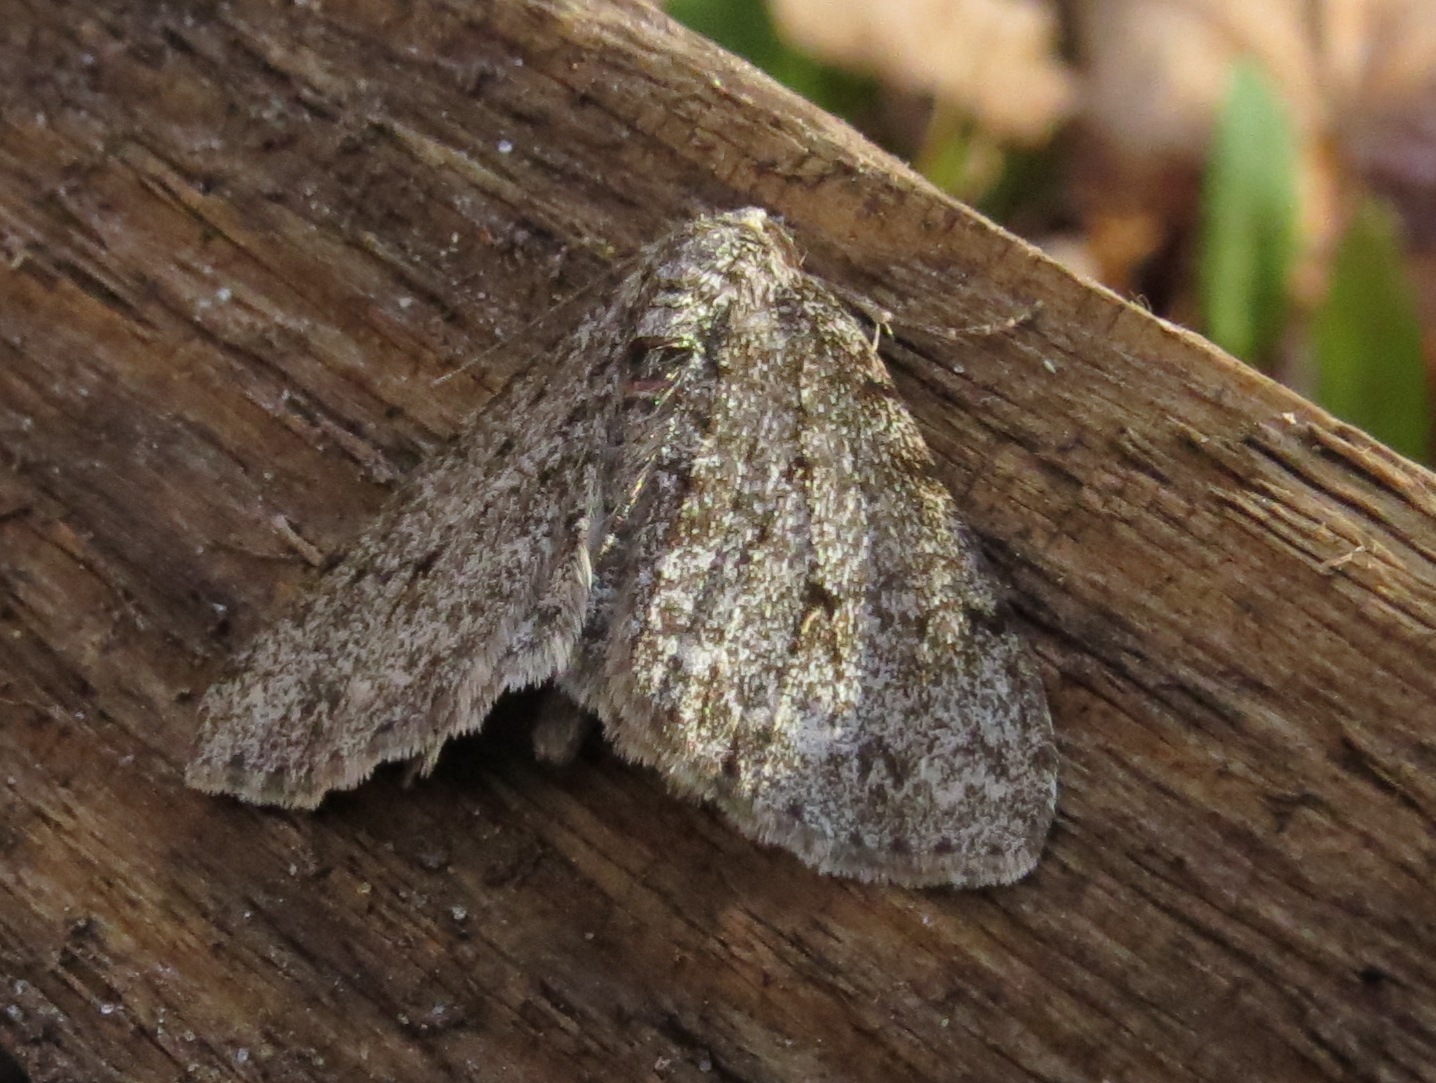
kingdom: Animalia
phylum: Arthropoda
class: Insecta
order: Lepidoptera
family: Geometridae
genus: Phigalia
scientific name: Phigalia strigataria
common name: Small phigalia
